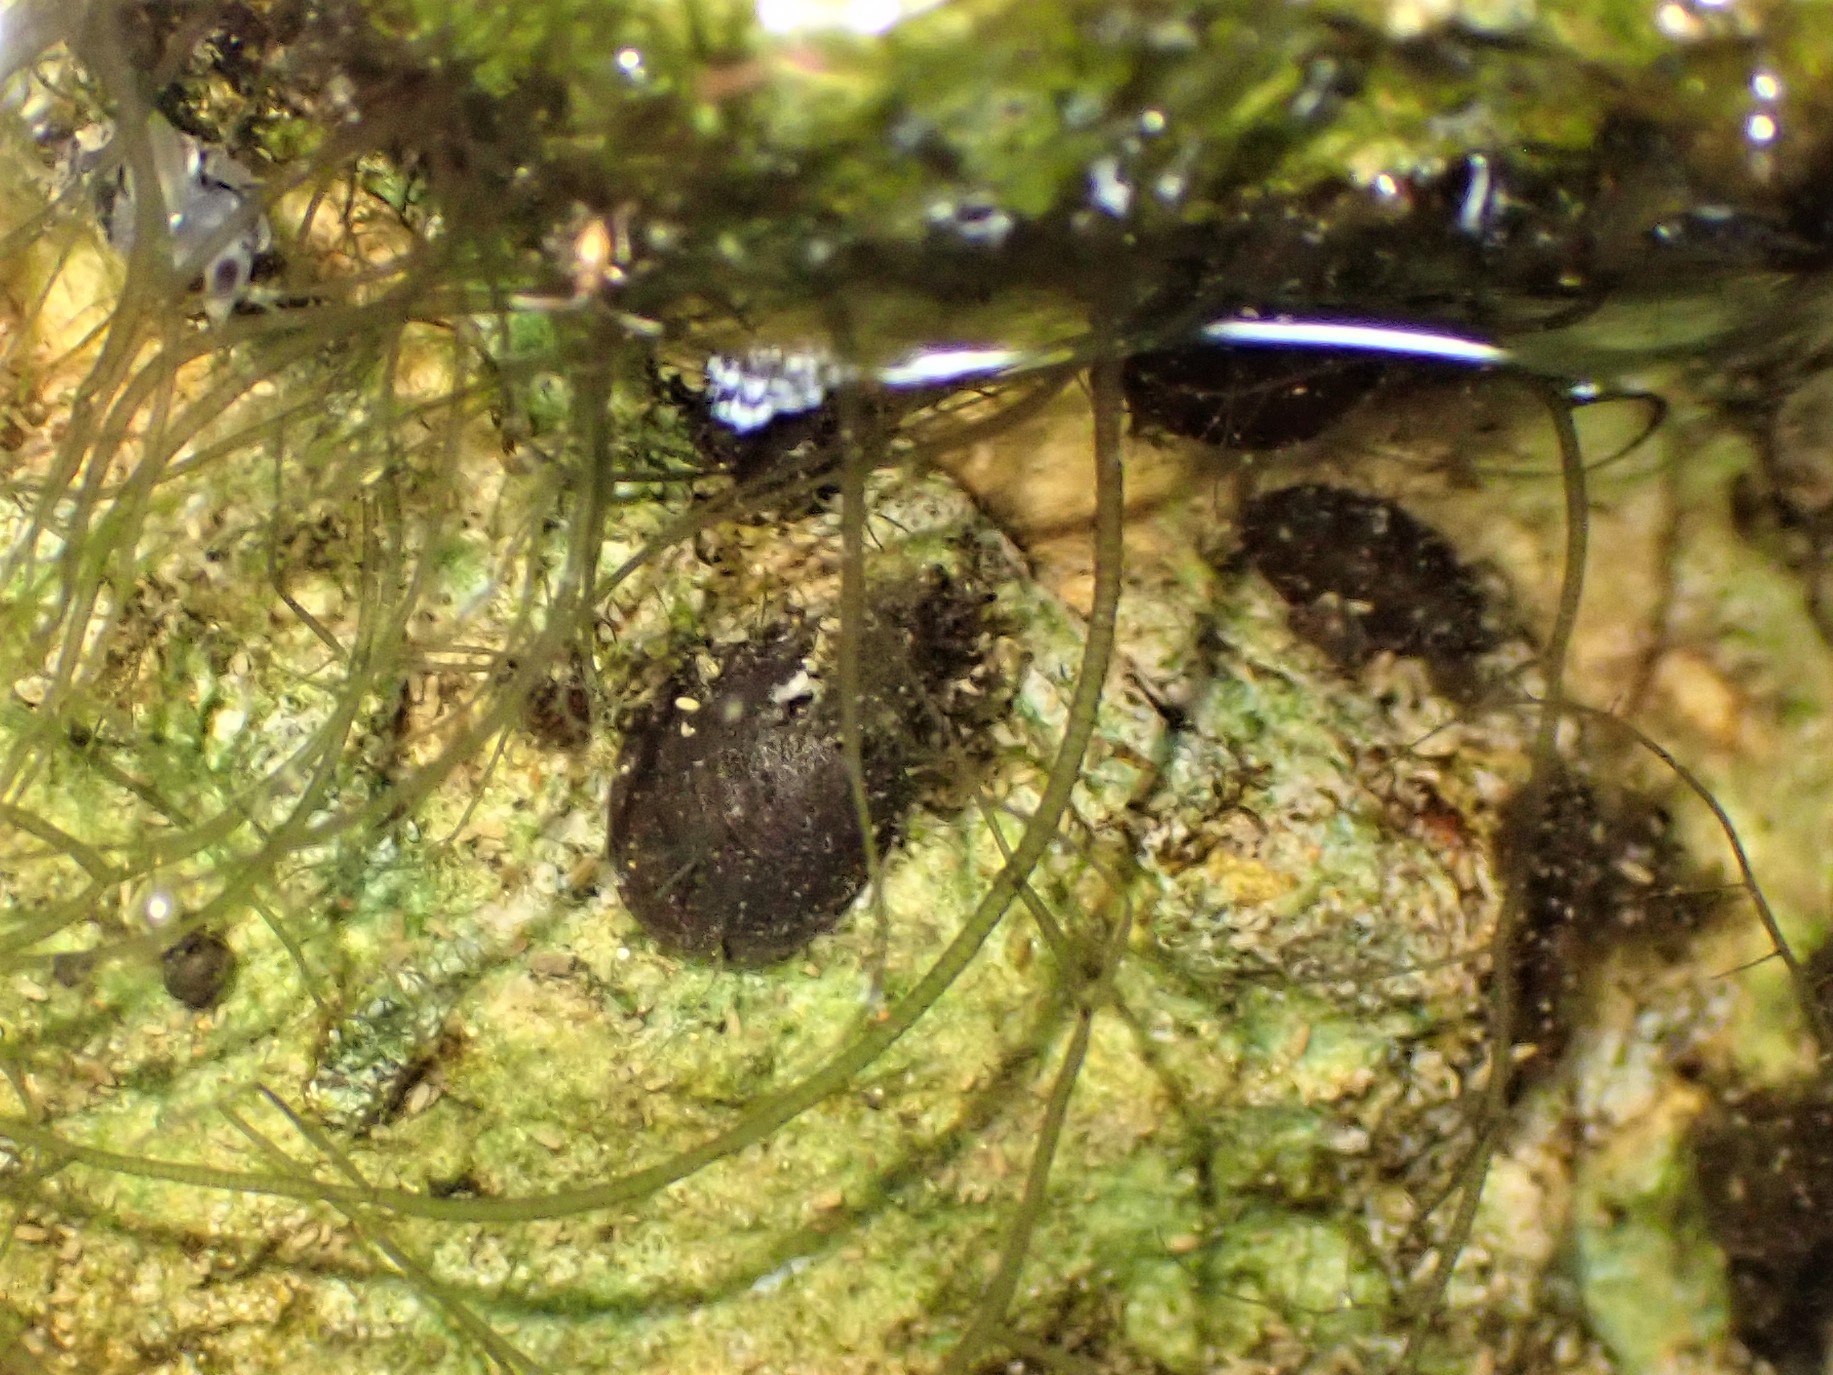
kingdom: Animalia
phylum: Mollusca
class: Gastropoda
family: Latiidae
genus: Latia
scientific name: Latia neritoides
